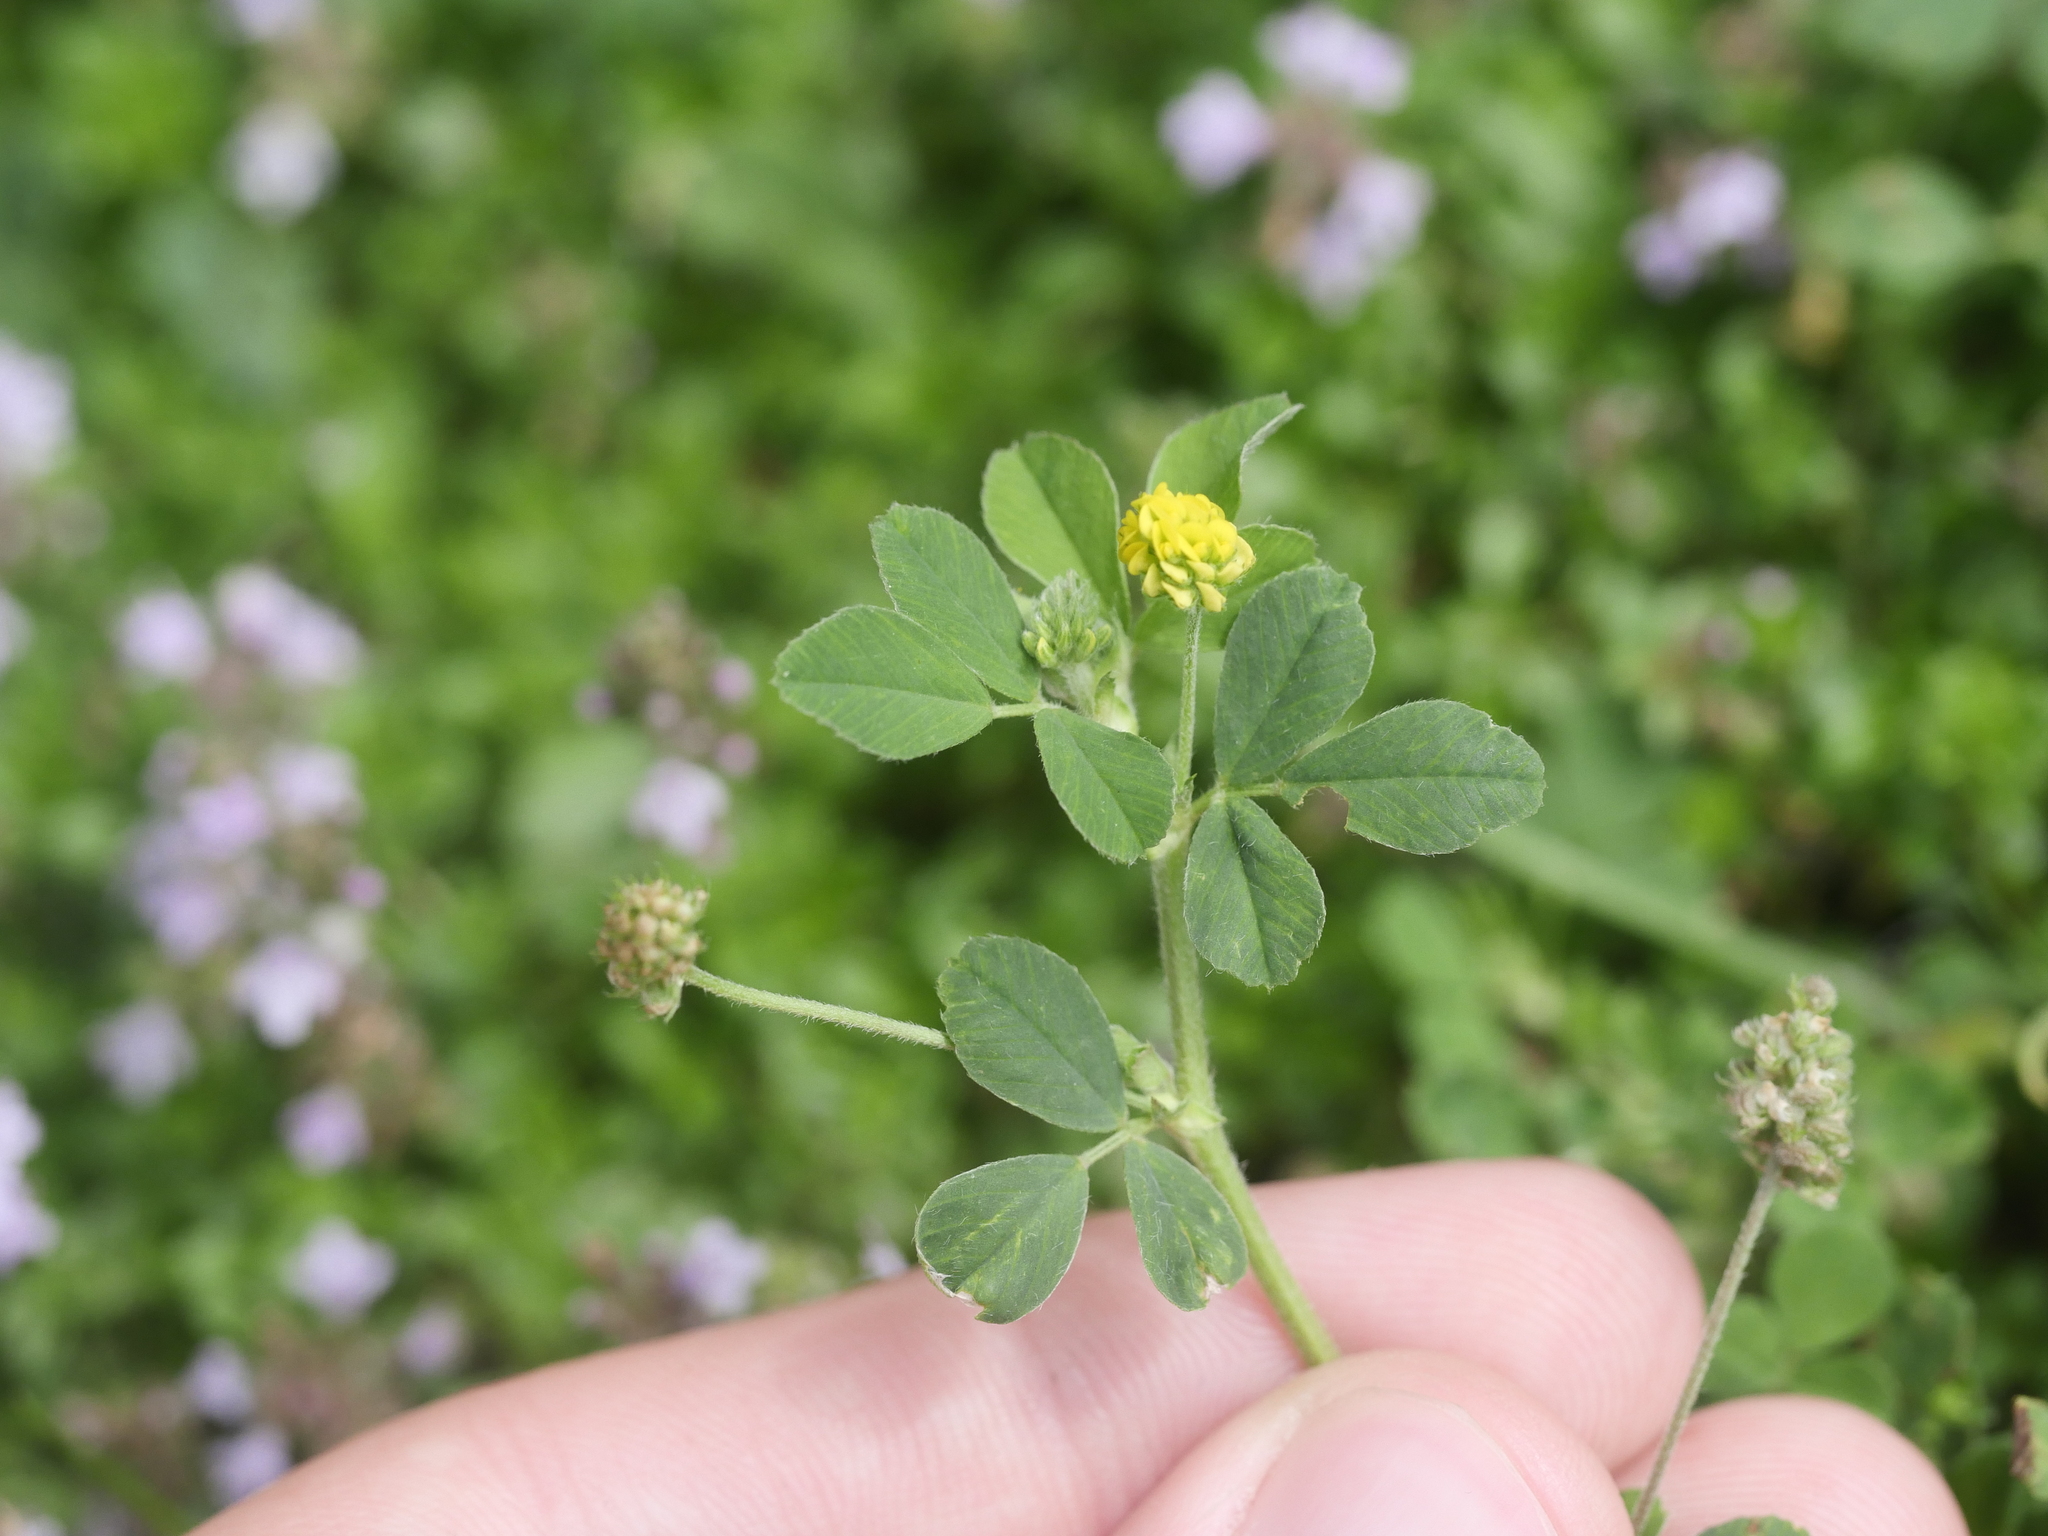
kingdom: Plantae
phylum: Tracheophyta
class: Magnoliopsida
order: Fabales
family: Fabaceae
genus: Medicago
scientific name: Medicago lupulina
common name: Black medick
